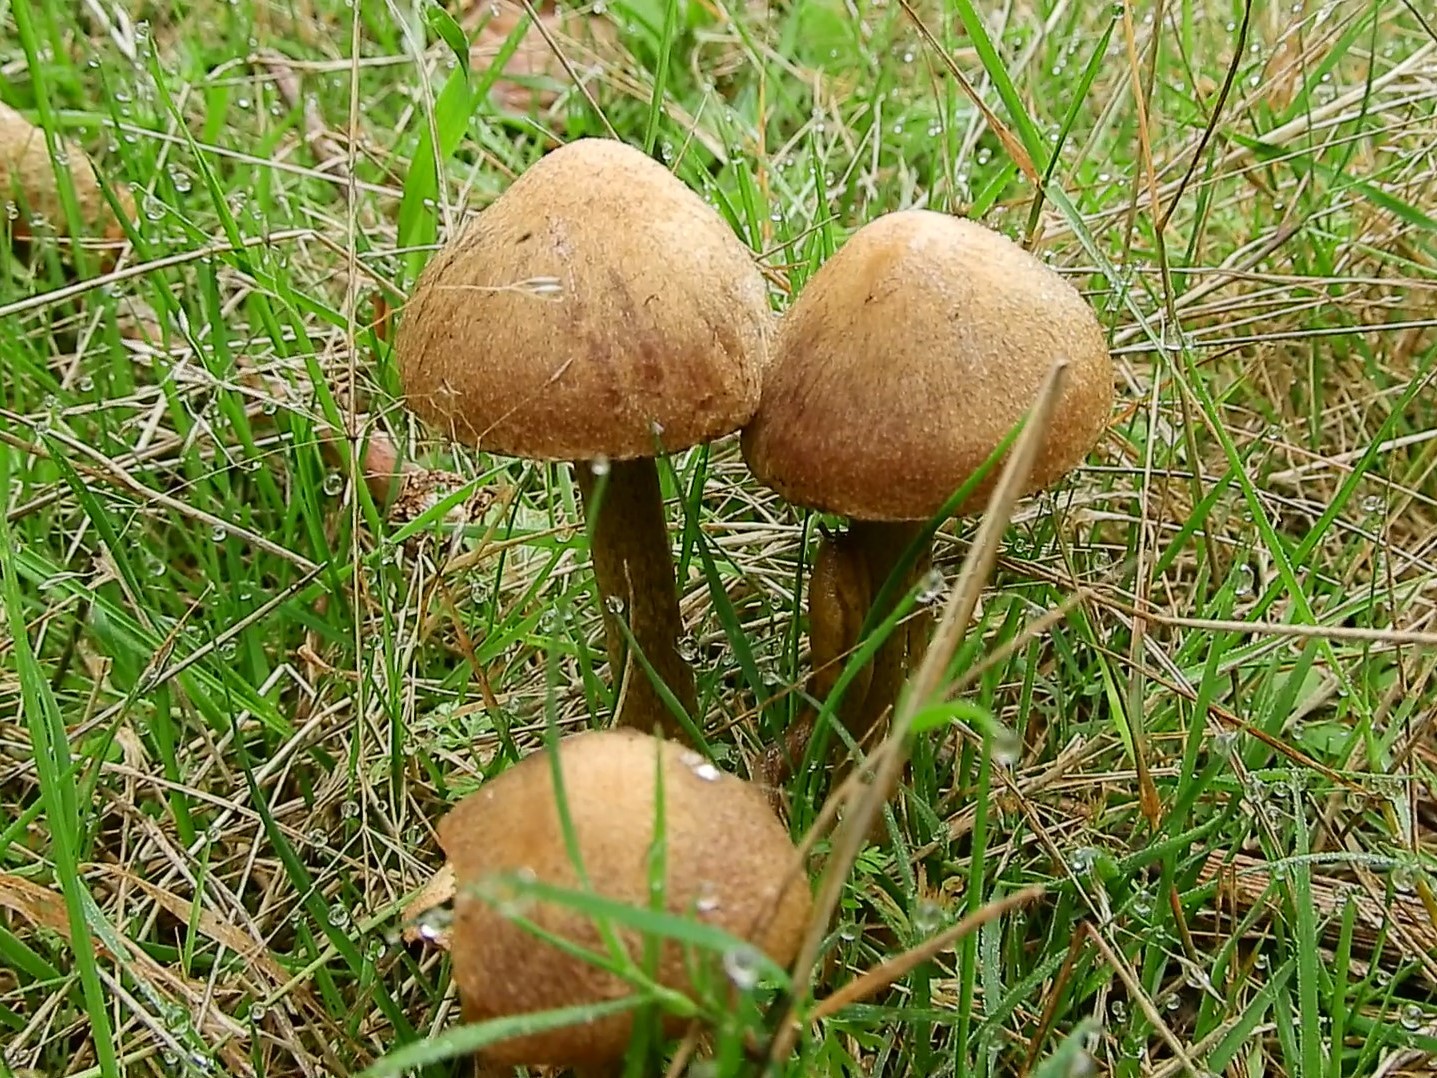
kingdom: Fungi
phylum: Basidiomycota
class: Agaricomycetes
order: Agaricales
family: Psathyrellaceae
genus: Lacrymaria
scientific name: Lacrymaria lacrymabunda
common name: Weeping widow
